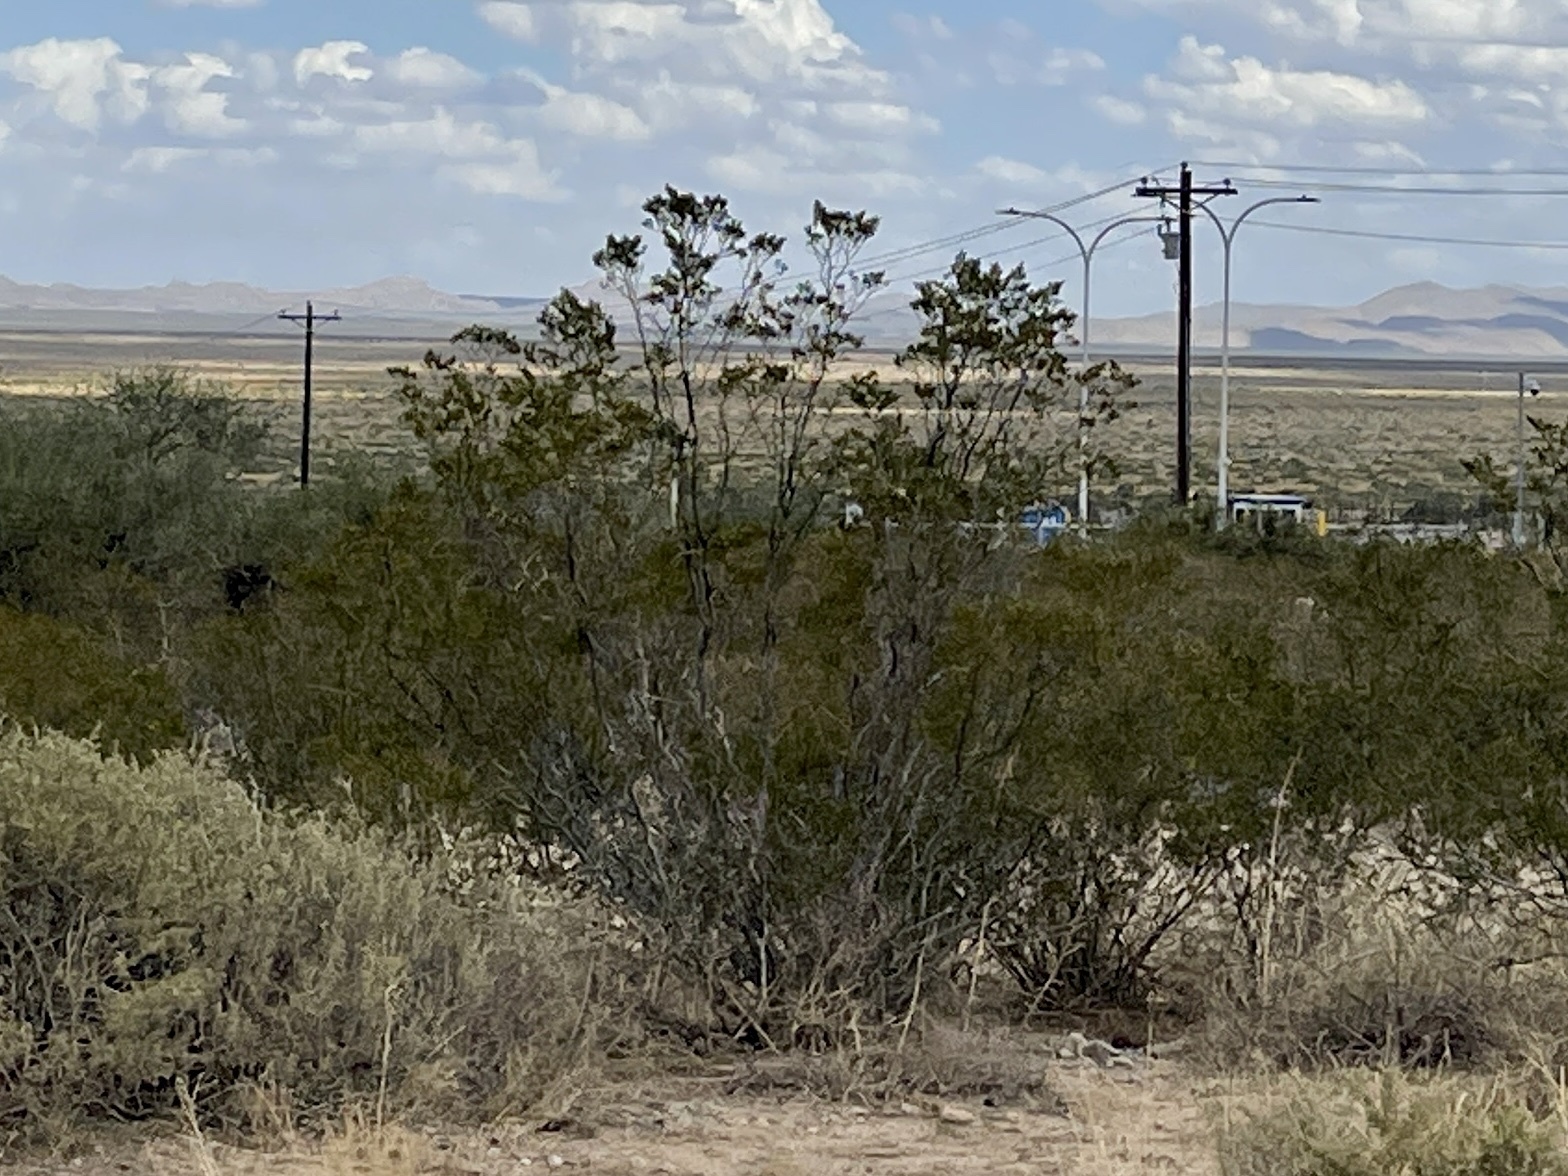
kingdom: Plantae
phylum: Tracheophyta
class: Magnoliopsida
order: Zygophyllales
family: Zygophyllaceae
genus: Larrea
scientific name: Larrea tridentata
